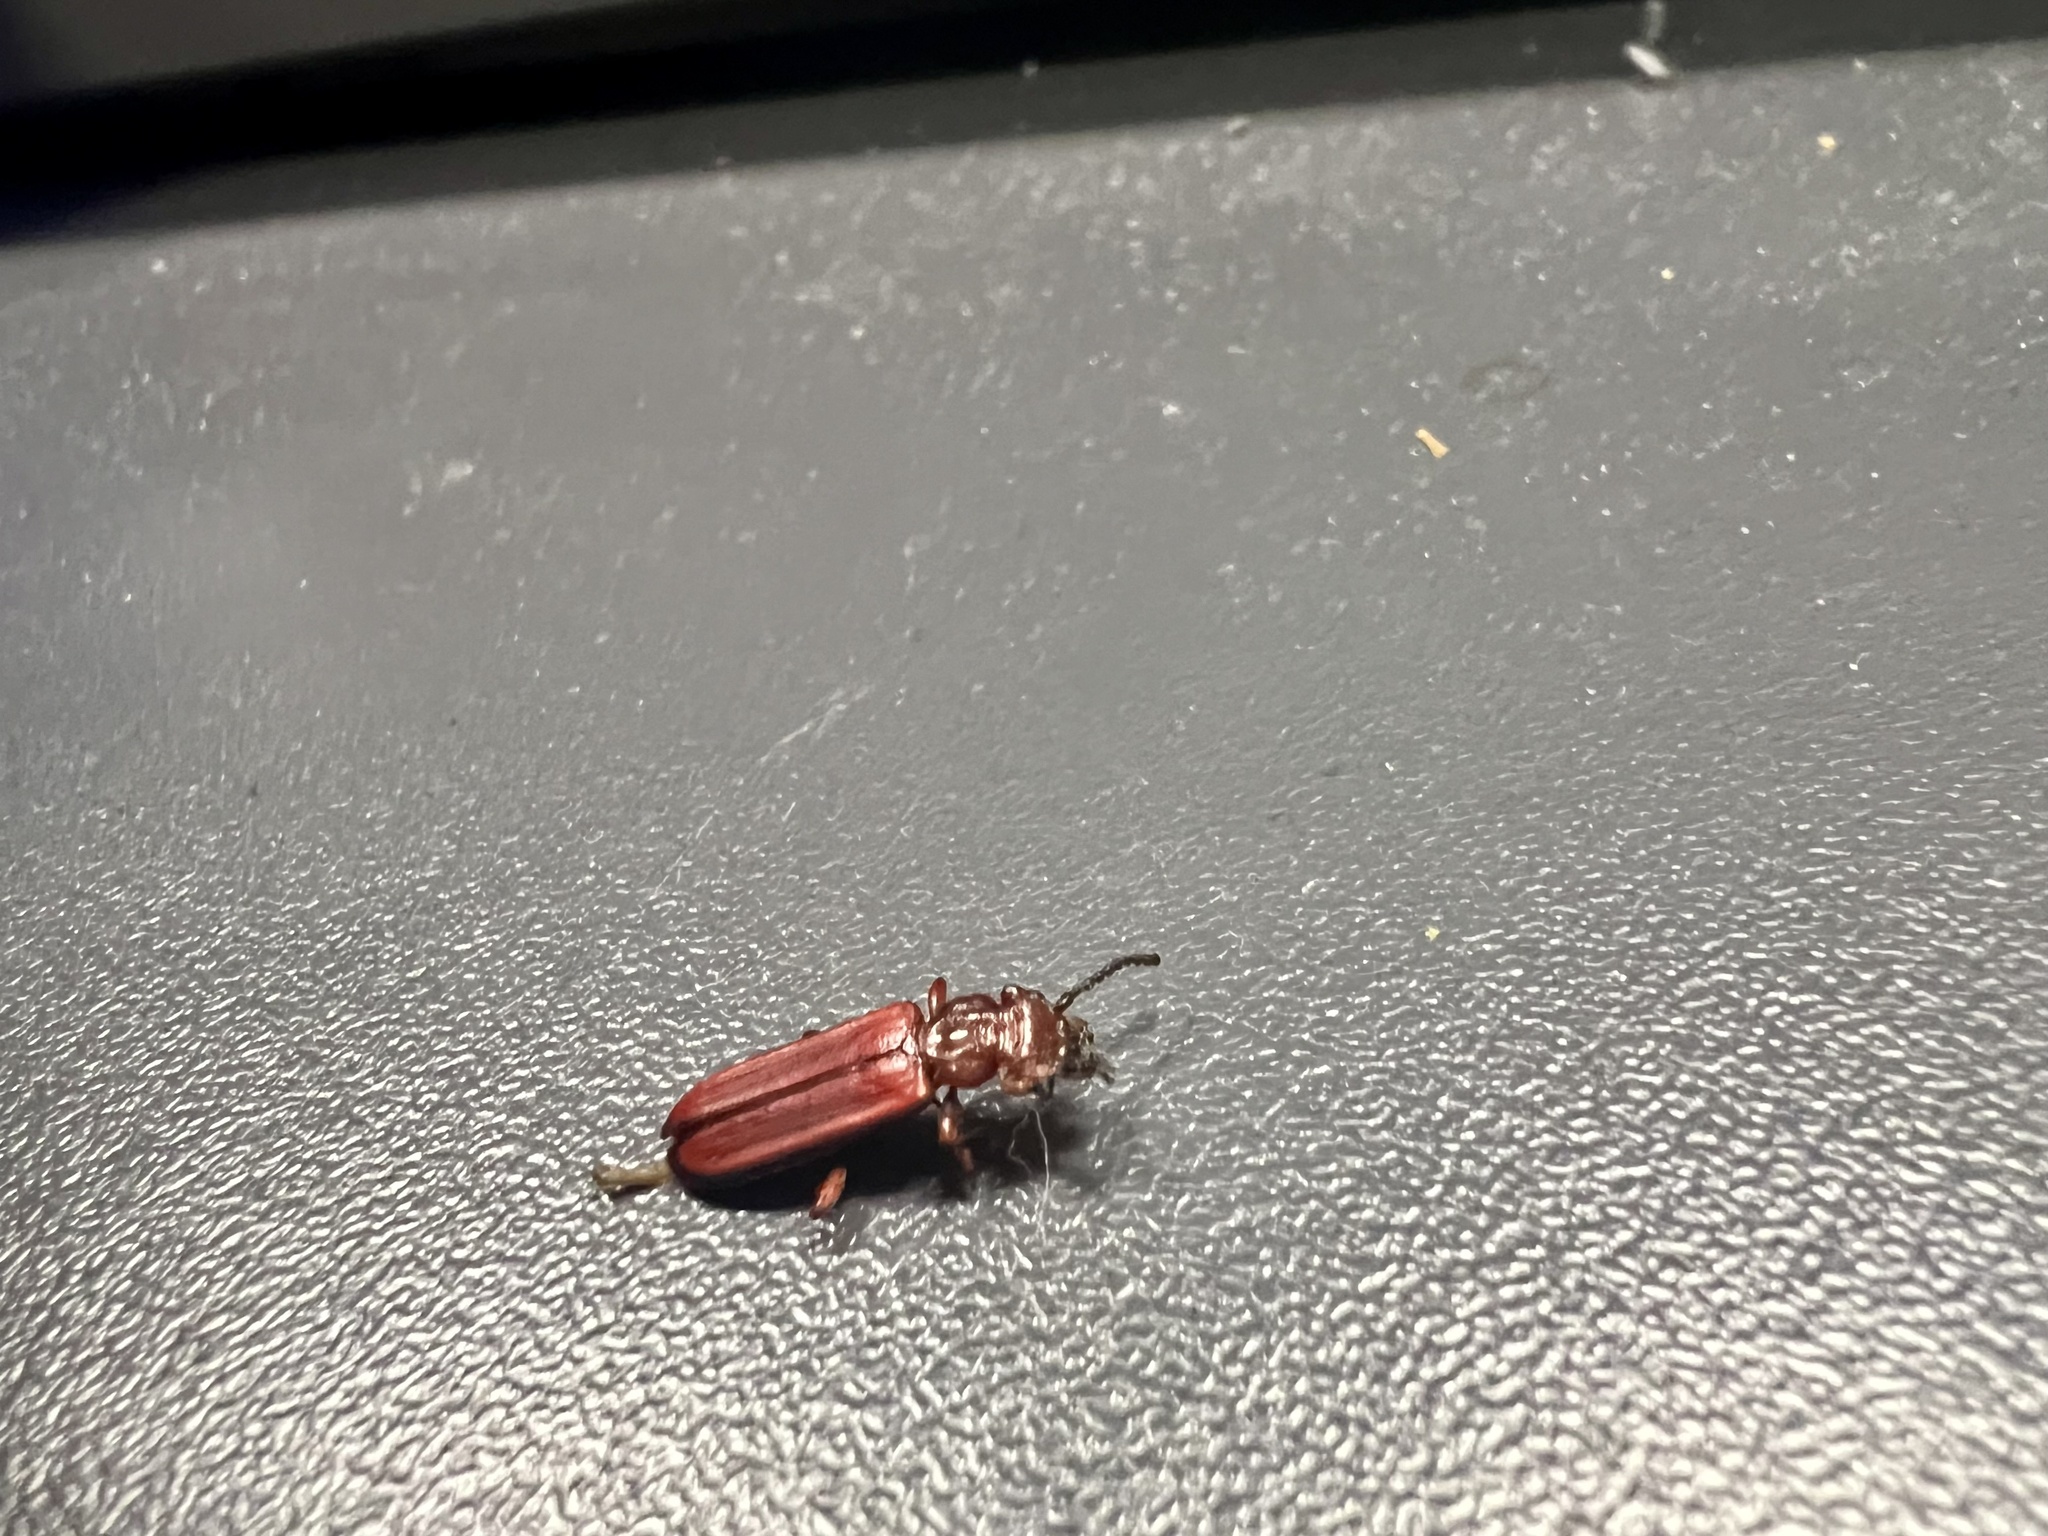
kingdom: Animalia
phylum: Arthropoda
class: Insecta
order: Coleoptera
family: Cucujidae
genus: Cucujus
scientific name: Cucujus clavipes
